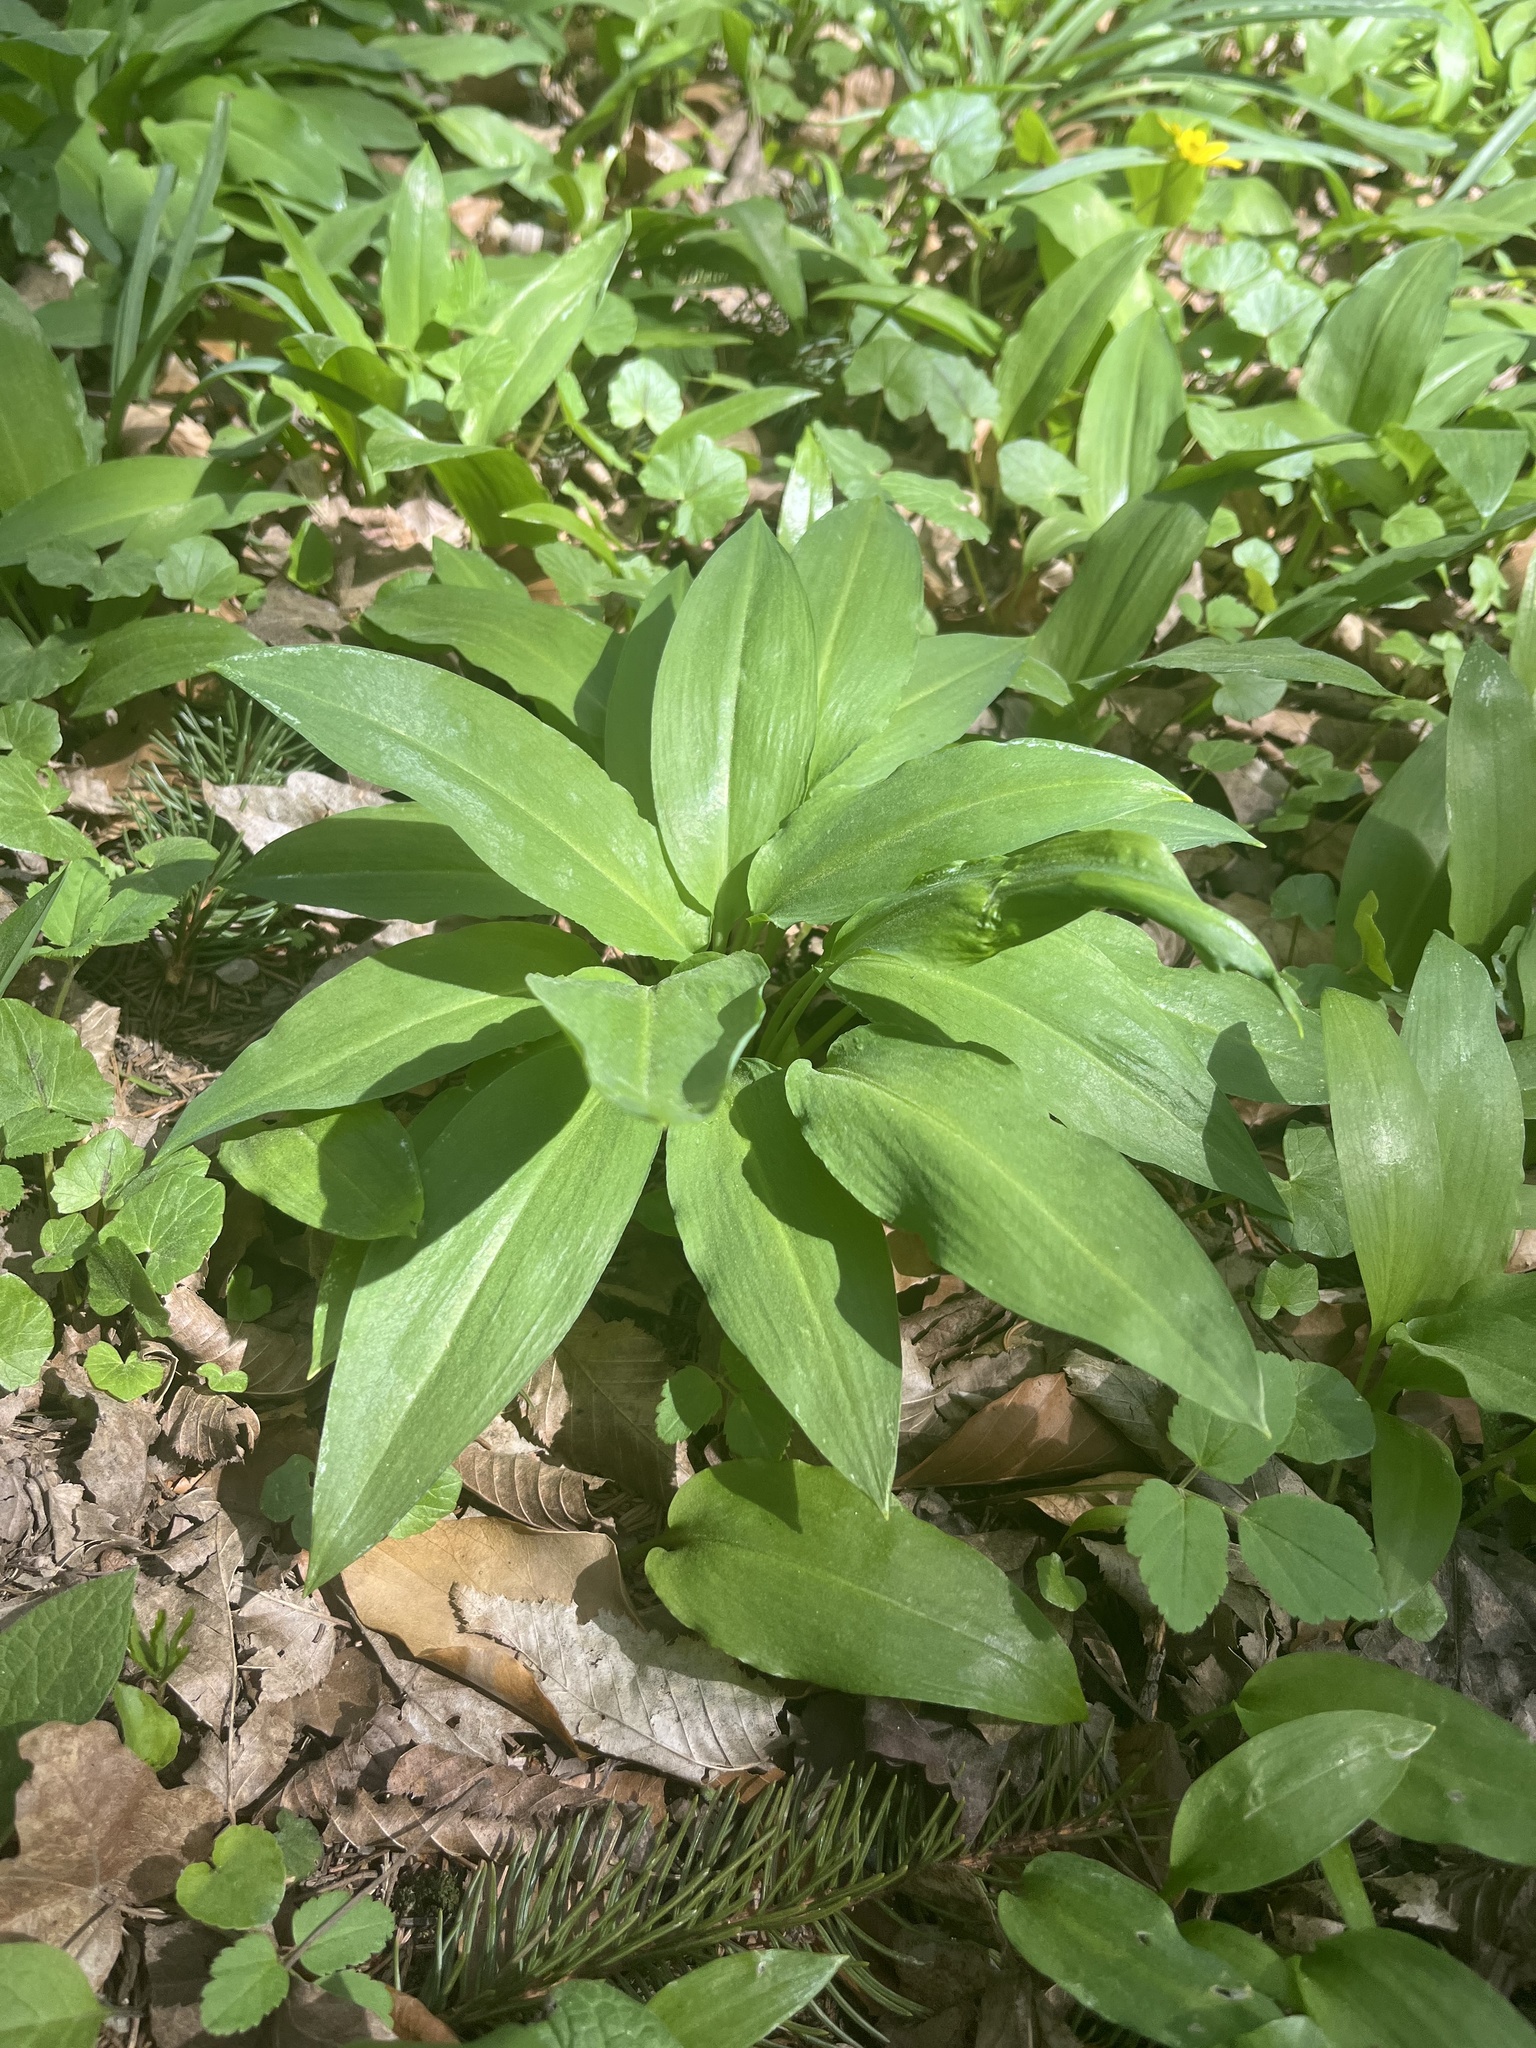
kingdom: Plantae
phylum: Tracheophyta
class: Liliopsida
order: Asparagales
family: Amaryllidaceae
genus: Allium
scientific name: Allium ursinum
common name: Ramsons
